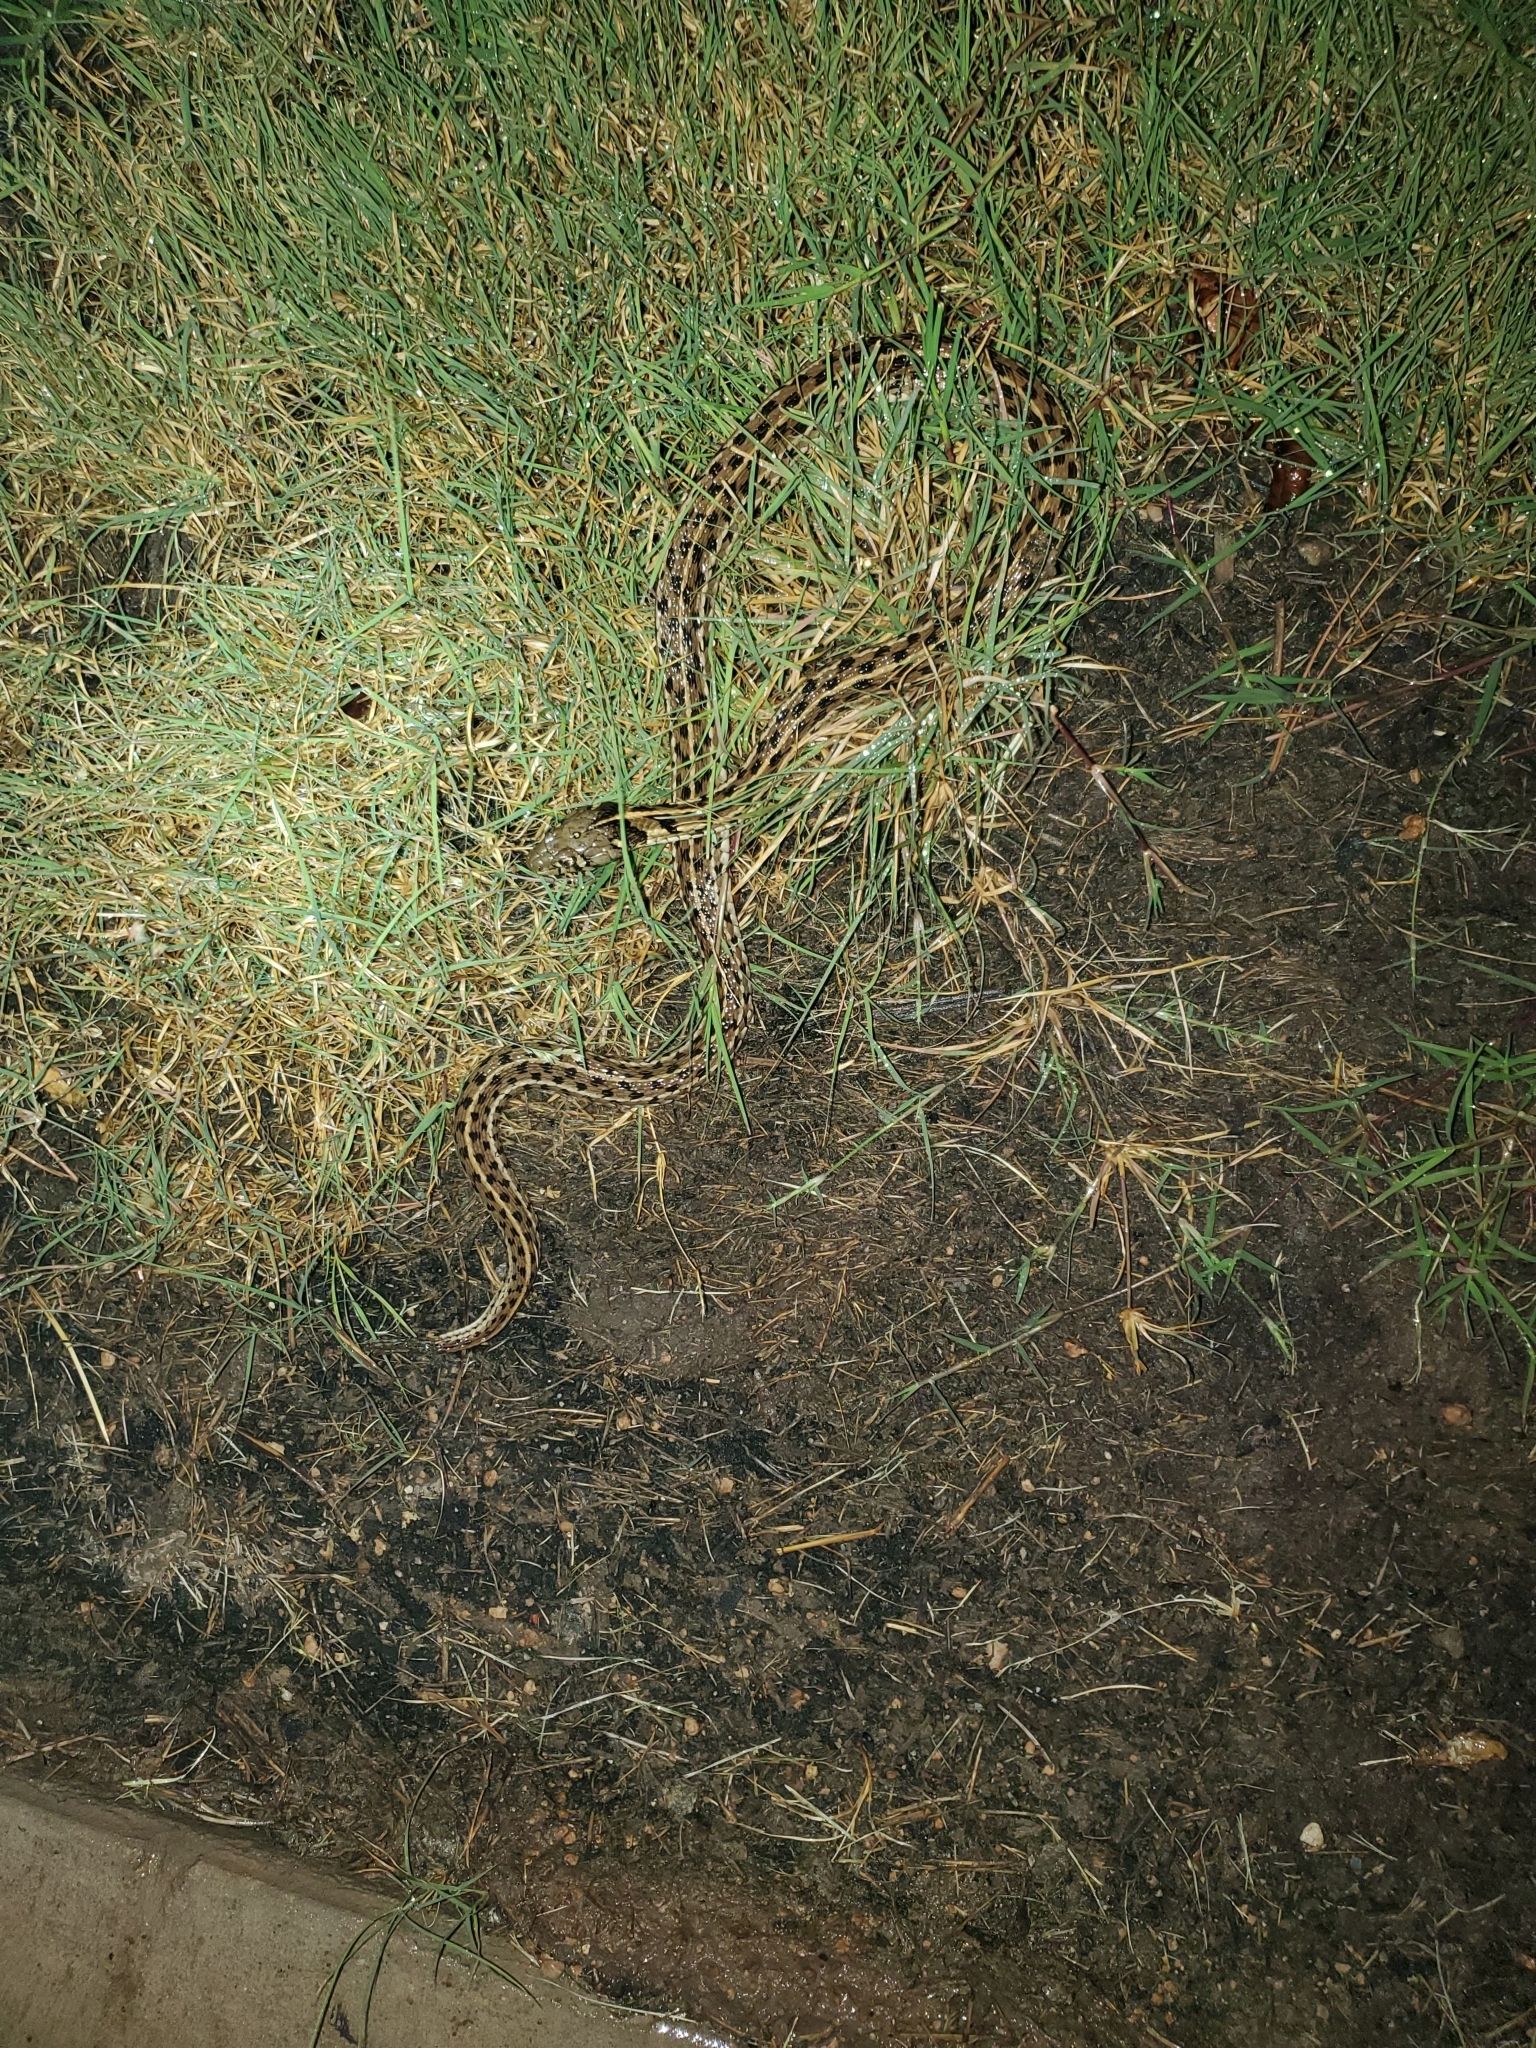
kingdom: Animalia
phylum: Chordata
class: Squamata
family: Colubridae
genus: Thamnophis
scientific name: Thamnophis marcianus
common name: Checkered garter snake
